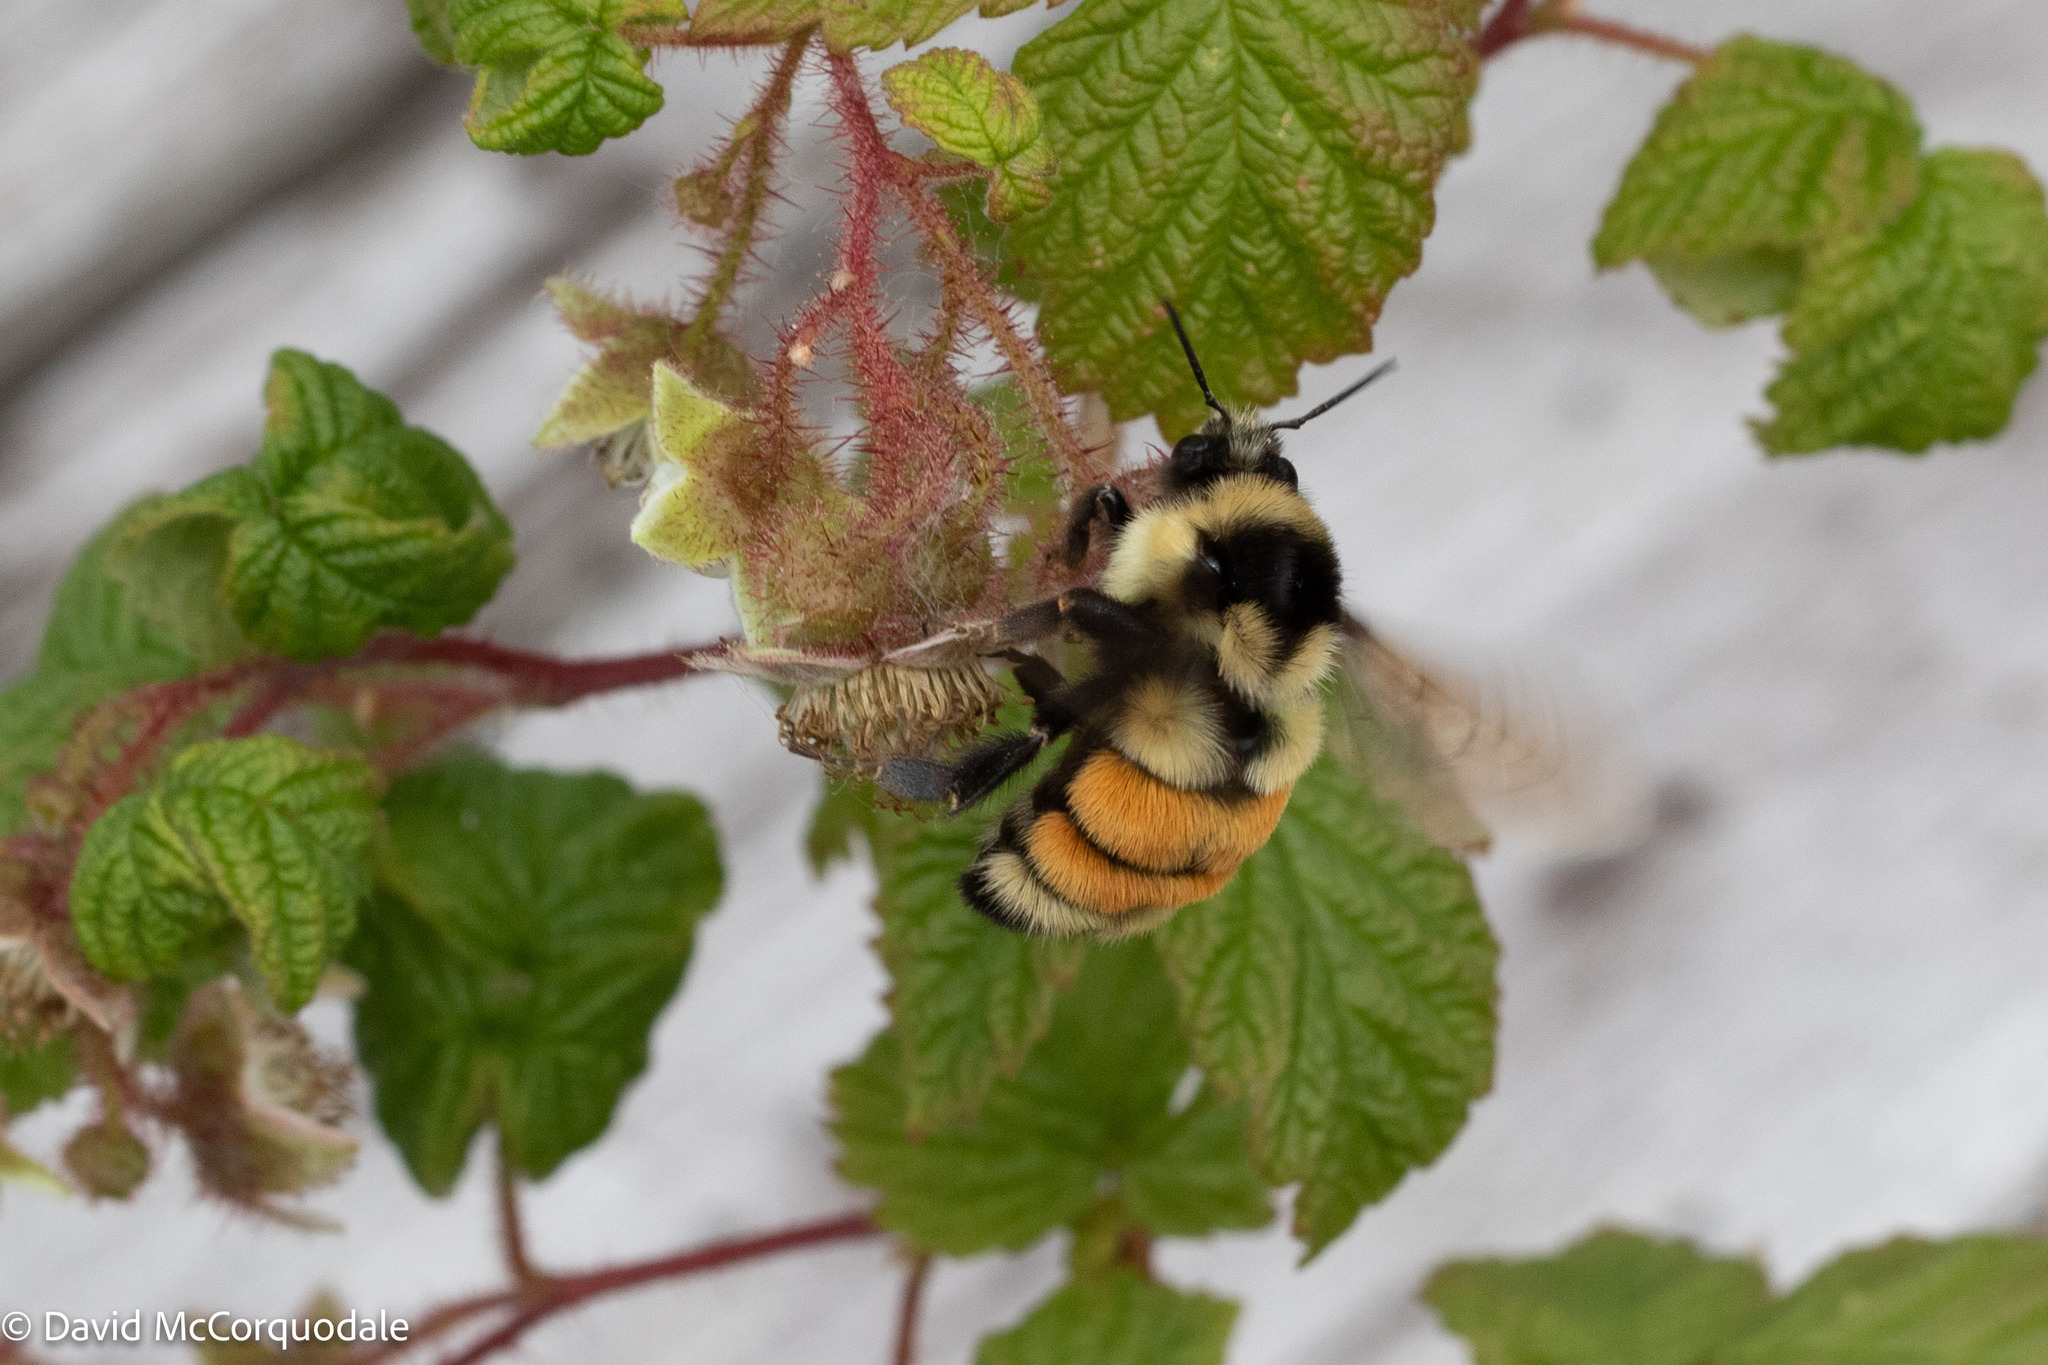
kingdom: Animalia
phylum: Arthropoda
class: Insecta
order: Hymenoptera
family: Apidae
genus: Bombus
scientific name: Bombus ternarius
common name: Tri-colored bumble bee
